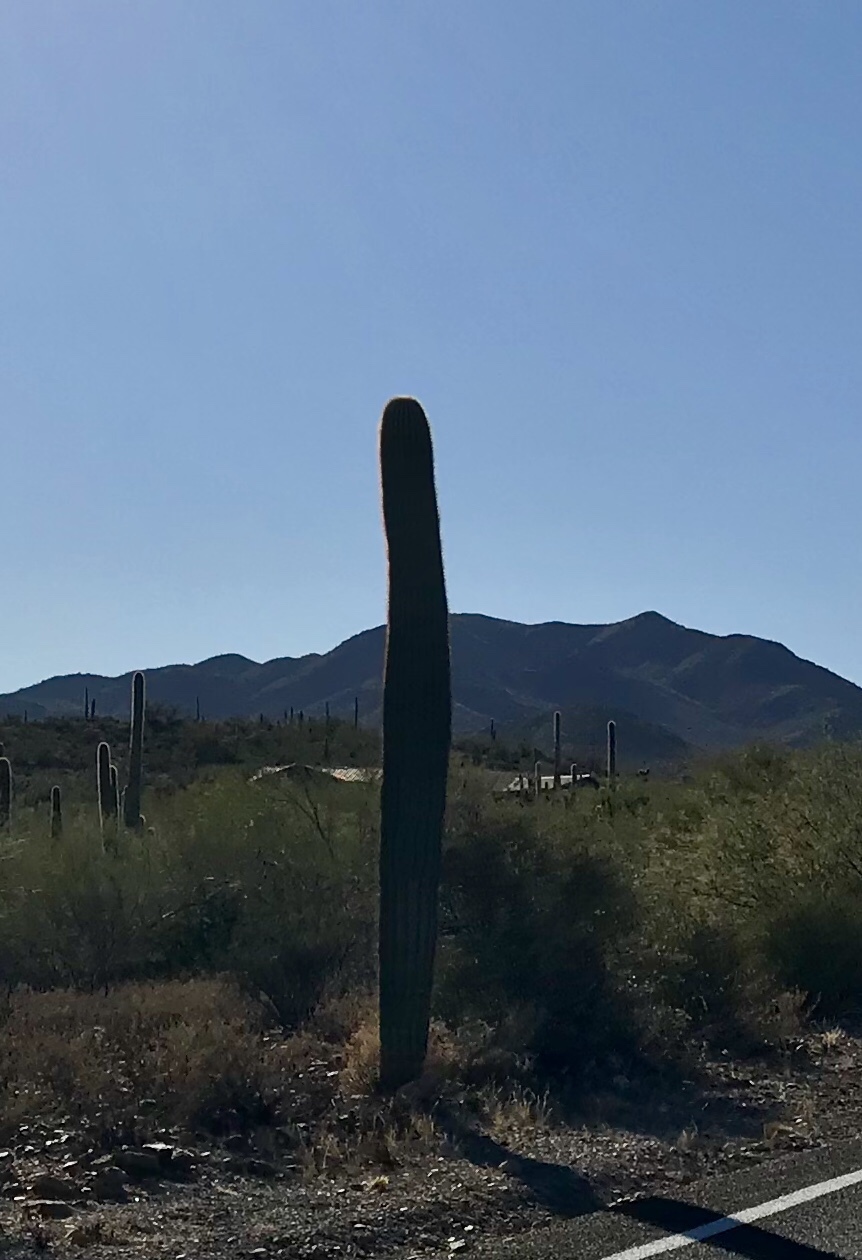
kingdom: Plantae
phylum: Tracheophyta
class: Magnoliopsida
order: Caryophyllales
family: Cactaceae
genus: Carnegiea
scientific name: Carnegiea gigantea
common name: Saguaro
